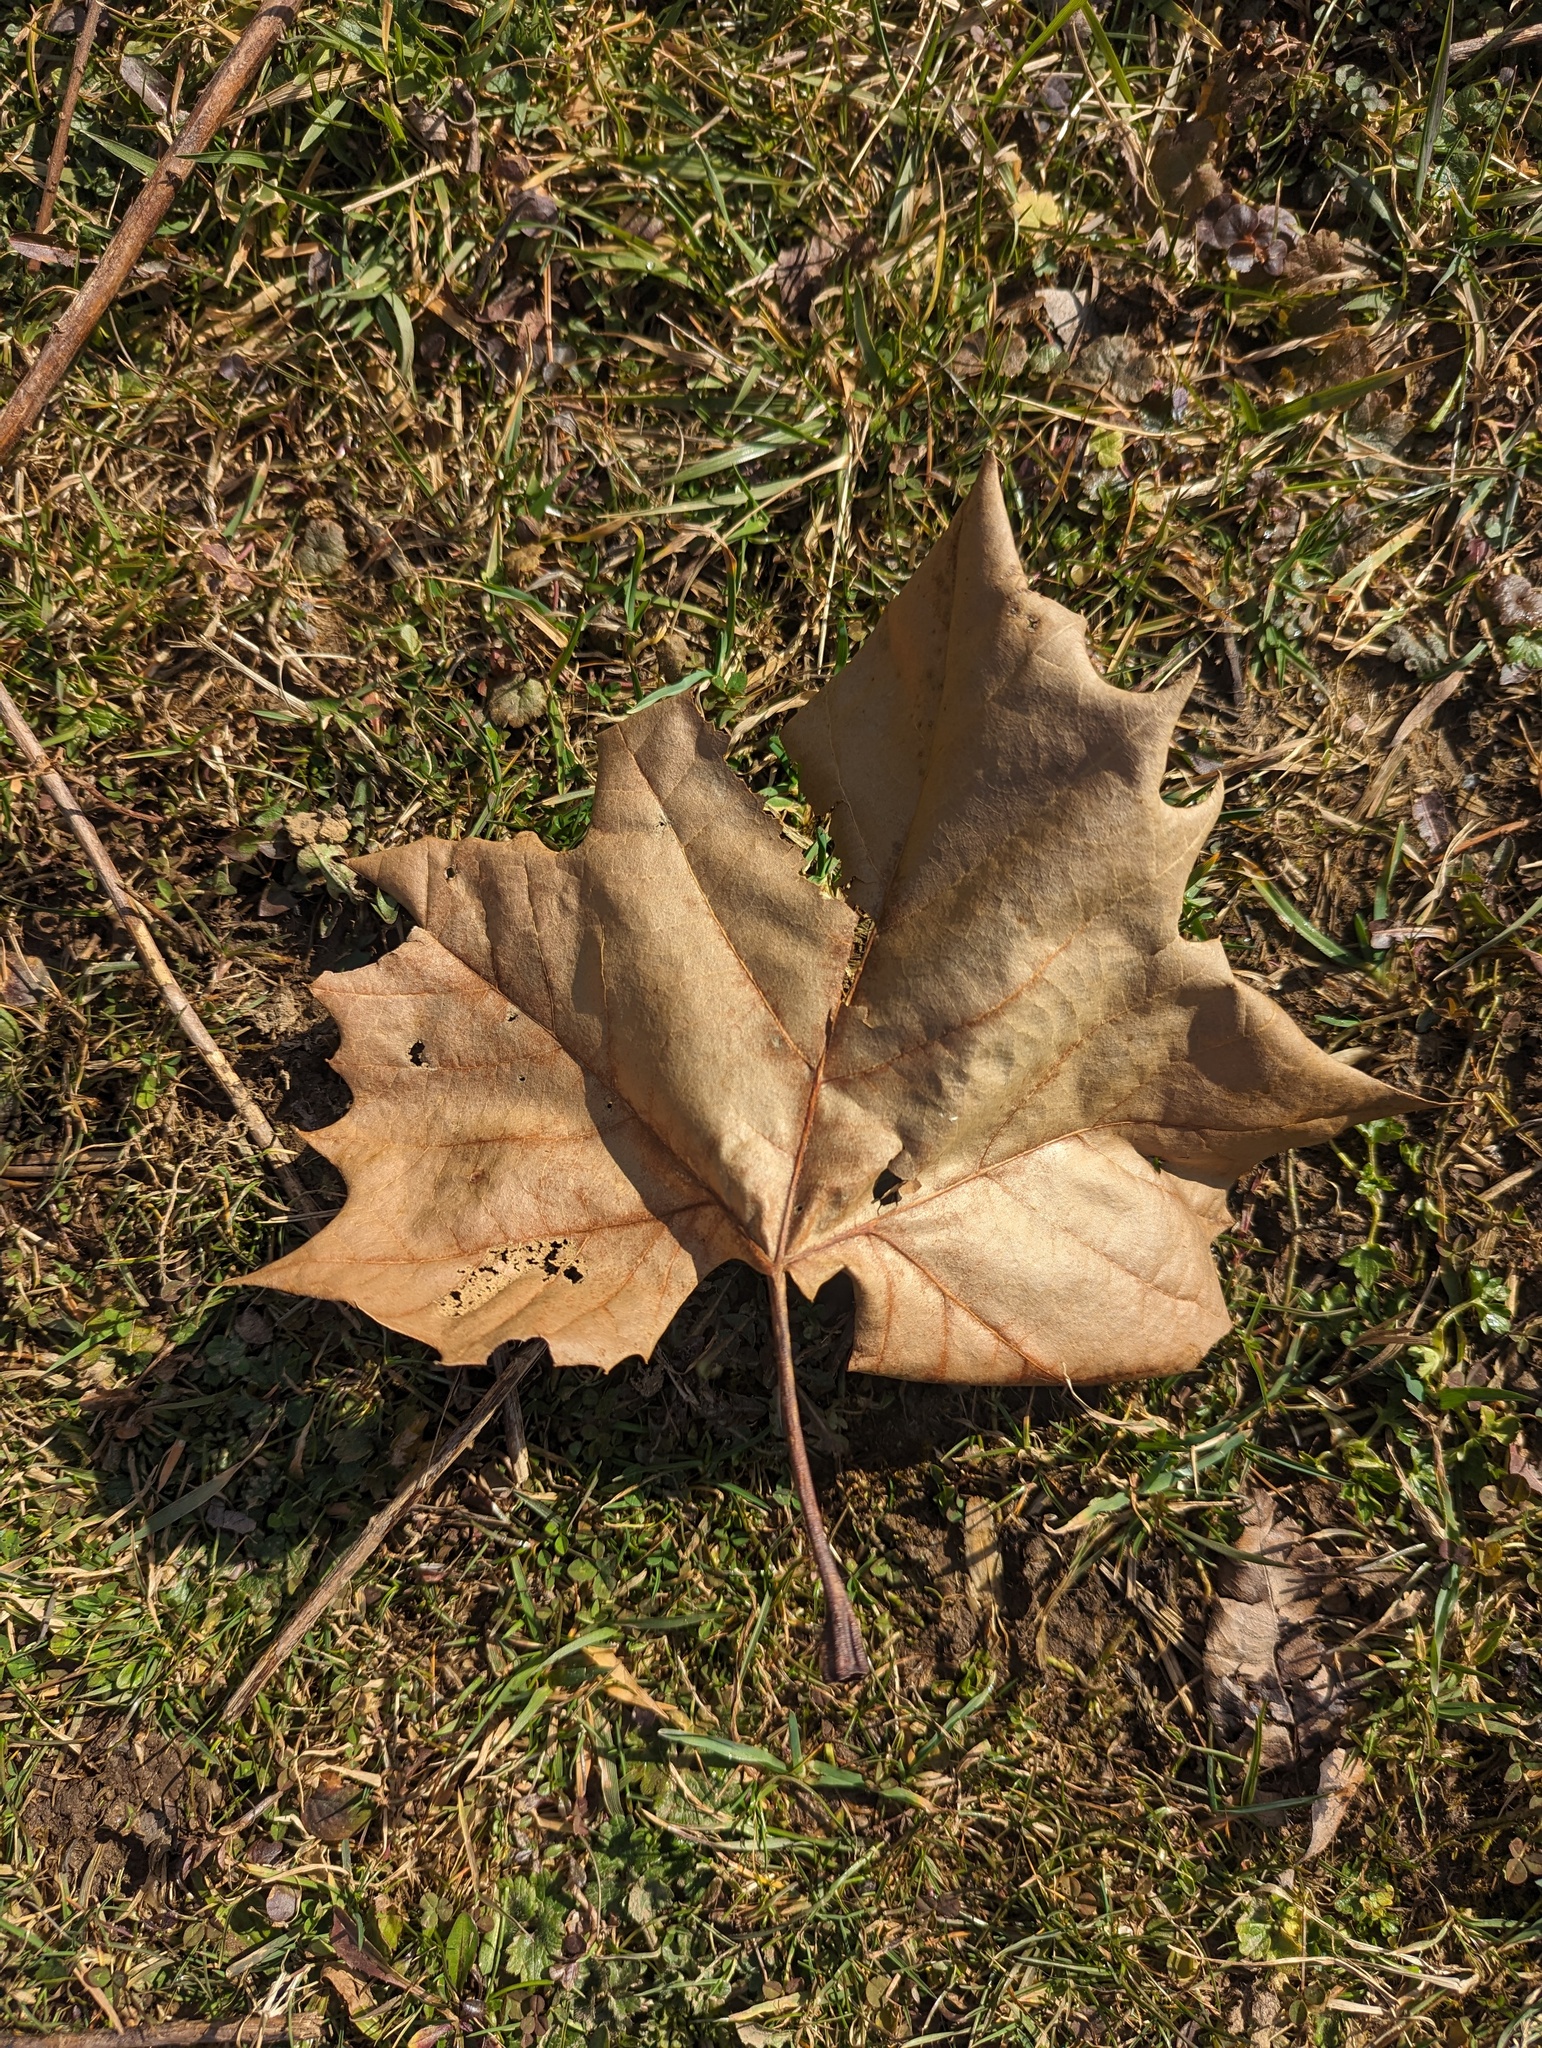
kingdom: Plantae
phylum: Tracheophyta
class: Magnoliopsida
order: Proteales
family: Platanaceae
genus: Platanus
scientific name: Platanus occidentalis
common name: American sycamore
